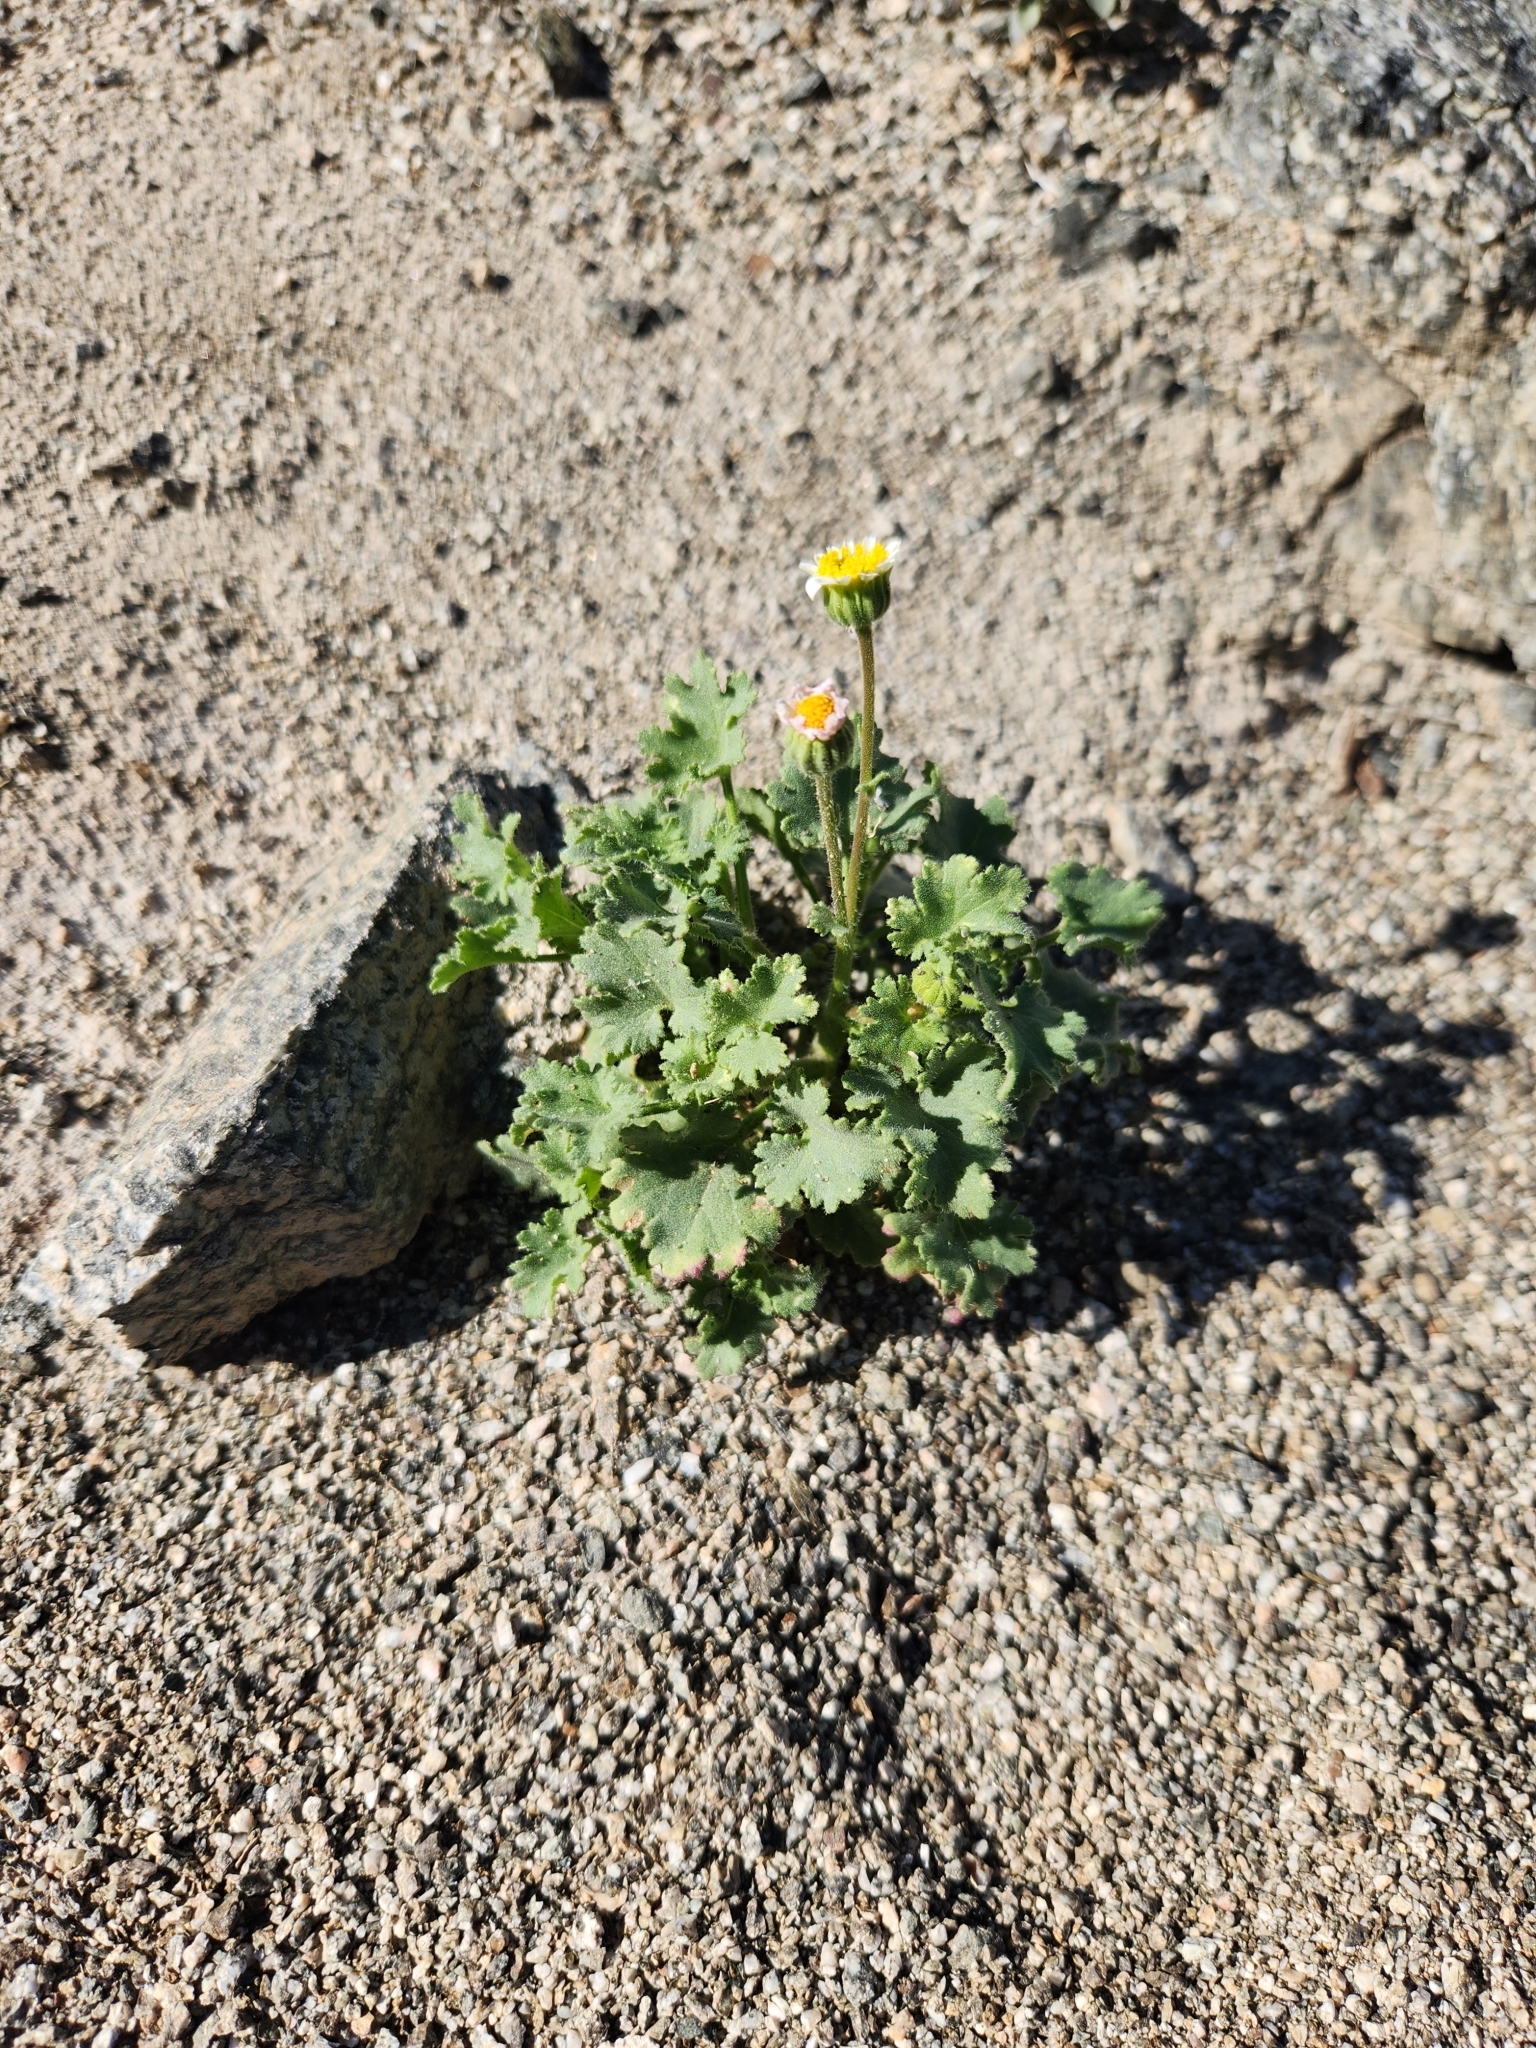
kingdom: Plantae
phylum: Tracheophyta
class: Magnoliopsida
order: Asterales
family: Asteraceae
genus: Laphamia
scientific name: Laphamia emoryi
